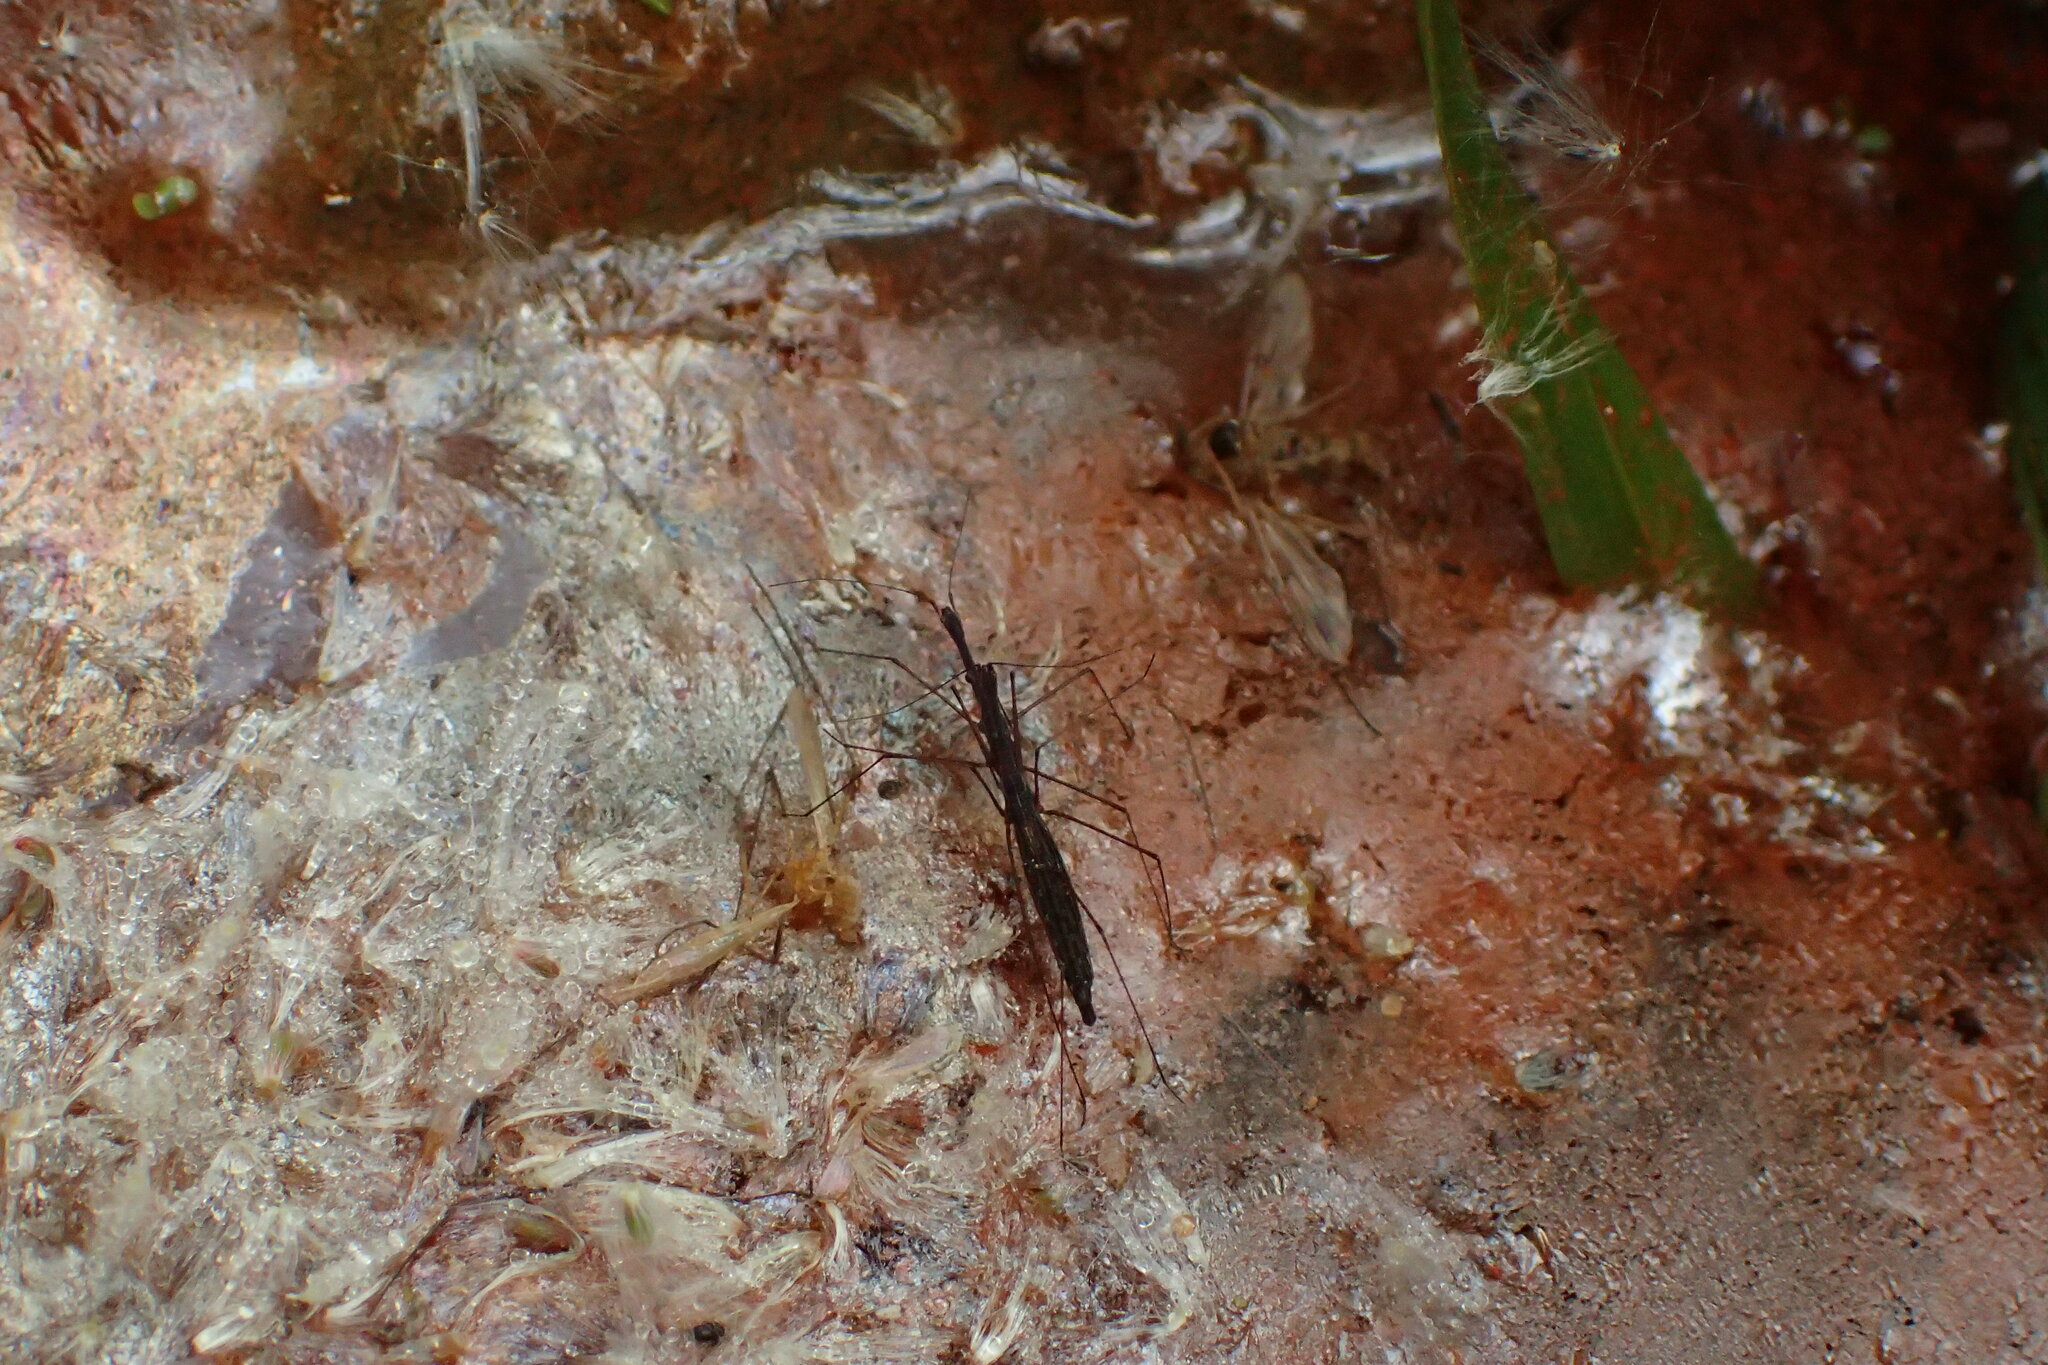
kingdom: Animalia
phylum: Arthropoda
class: Insecta
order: Hemiptera
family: Hydrometridae
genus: Hydrometra
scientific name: Hydrometra stagnorum
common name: Water measurer
